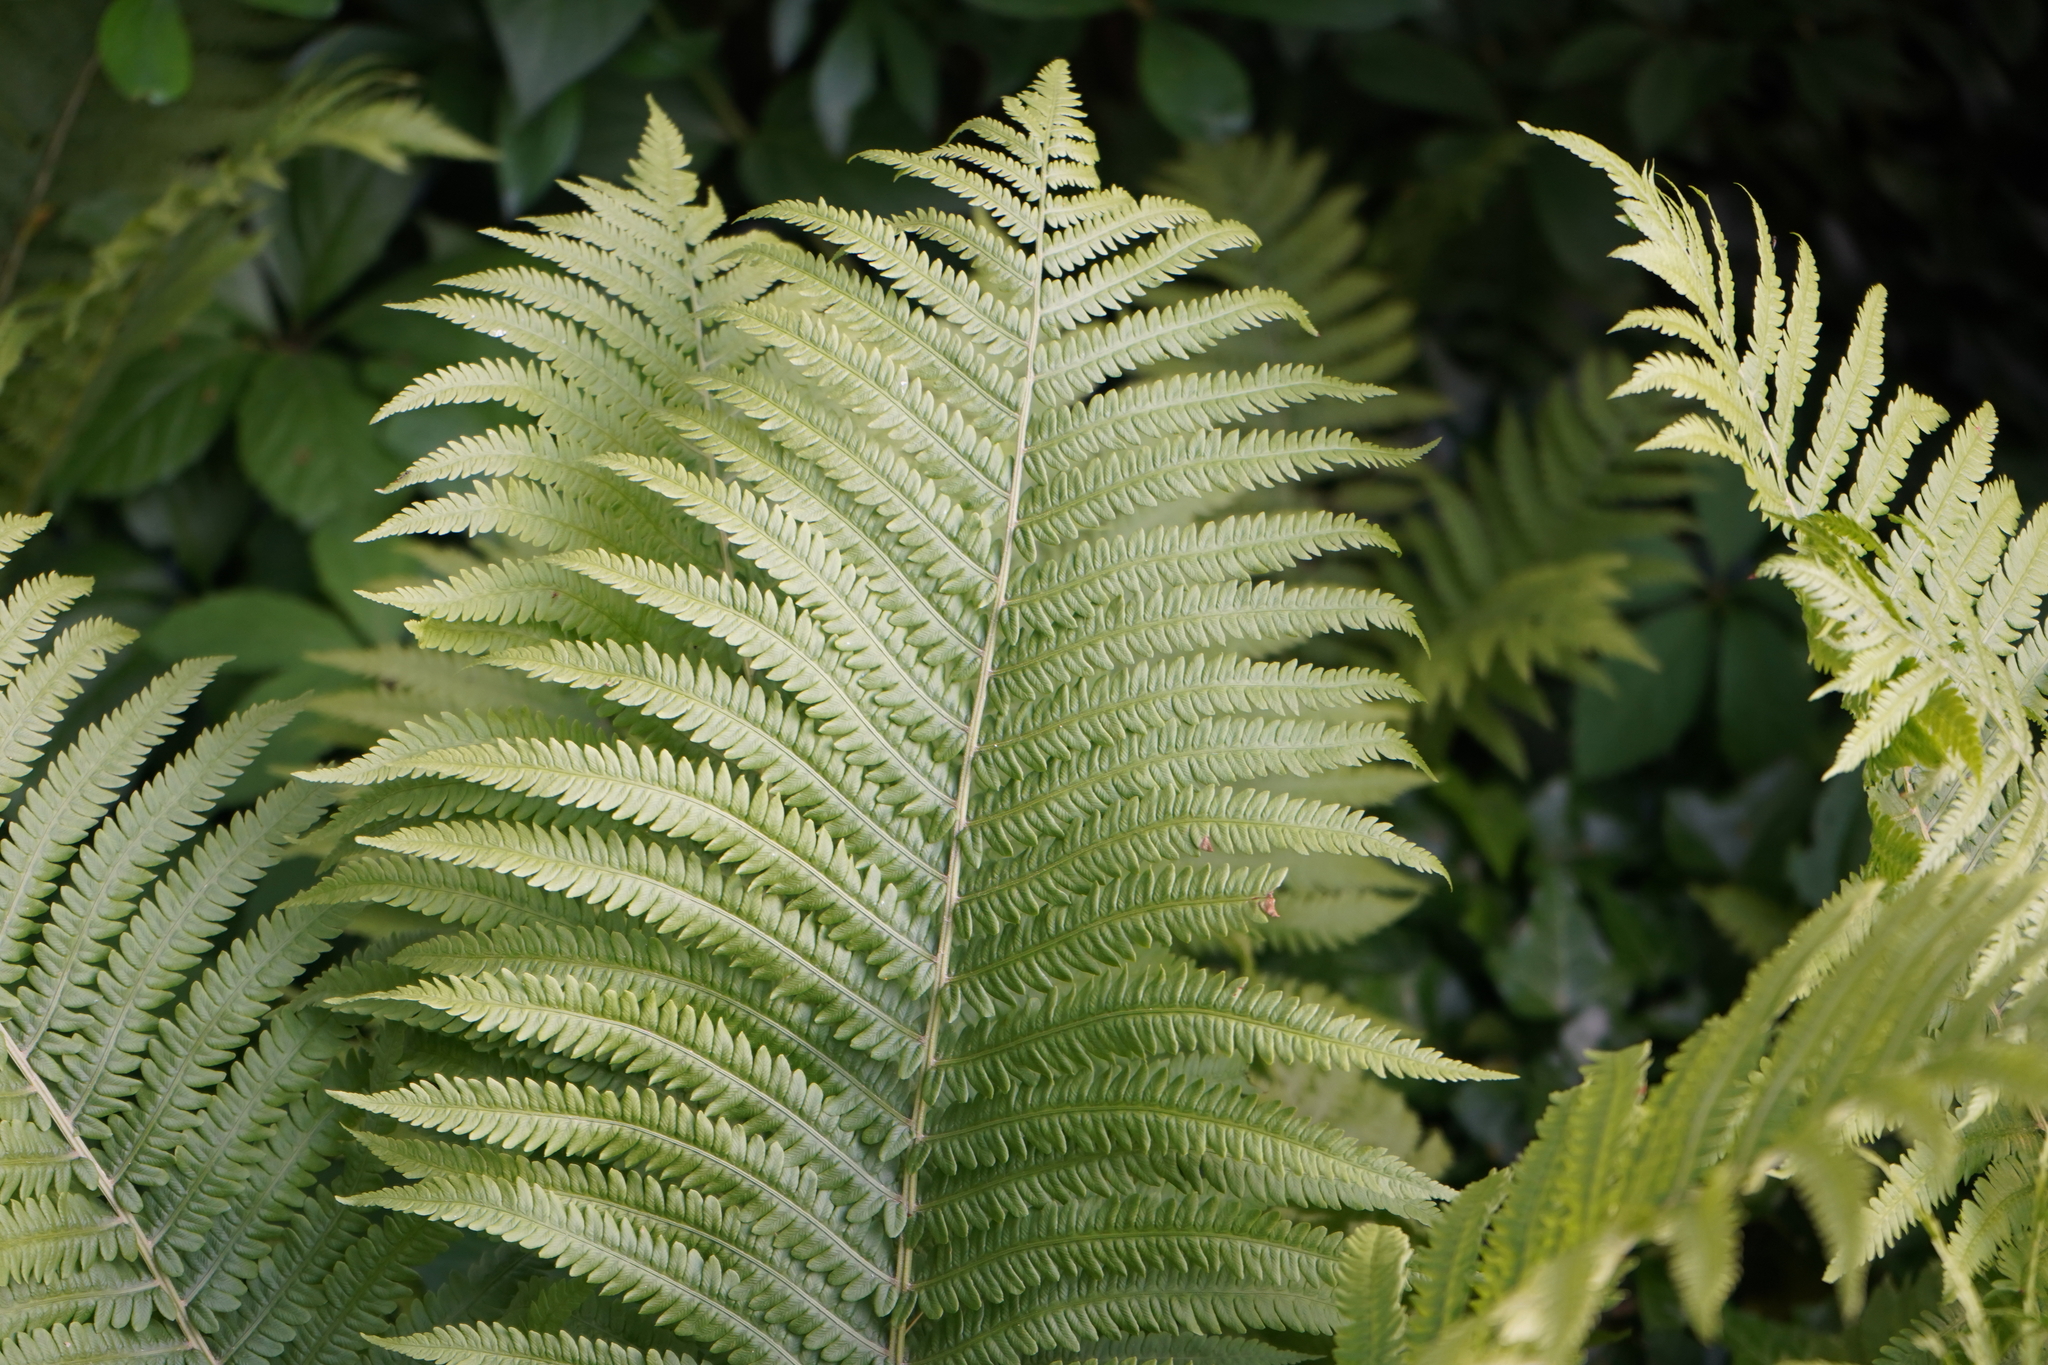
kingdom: Plantae
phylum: Tracheophyta
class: Polypodiopsida
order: Polypodiales
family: Onocleaceae
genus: Matteuccia
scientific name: Matteuccia struthiopteris
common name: Ostrich fern
